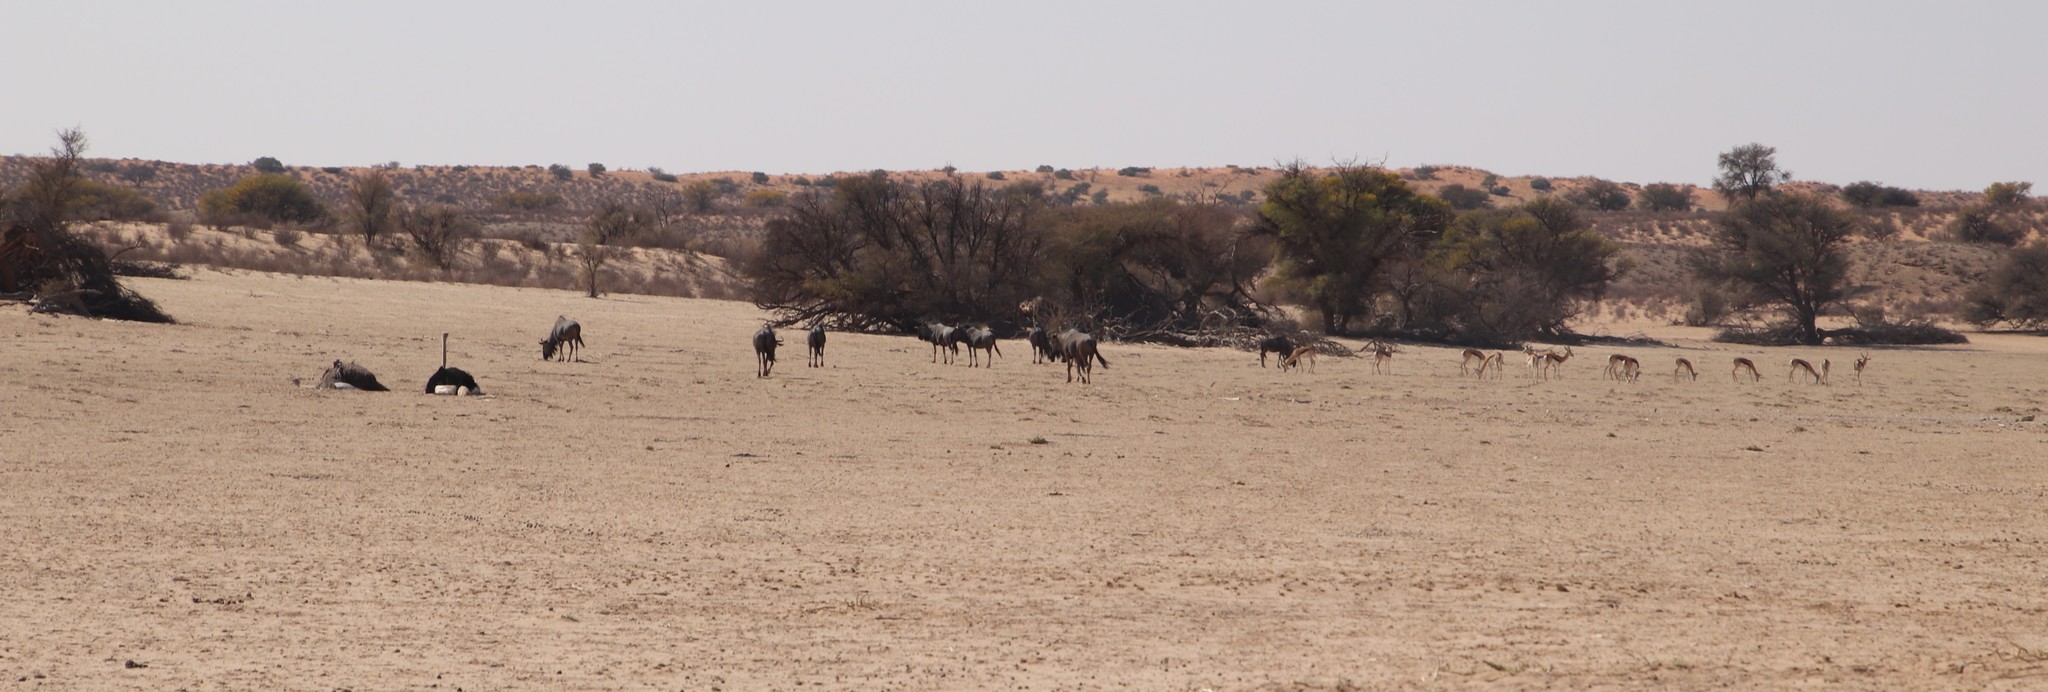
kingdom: Animalia
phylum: Chordata
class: Aves
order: Struthioniformes
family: Struthionidae
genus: Struthio
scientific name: Struthio camelus
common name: Common ostrich
